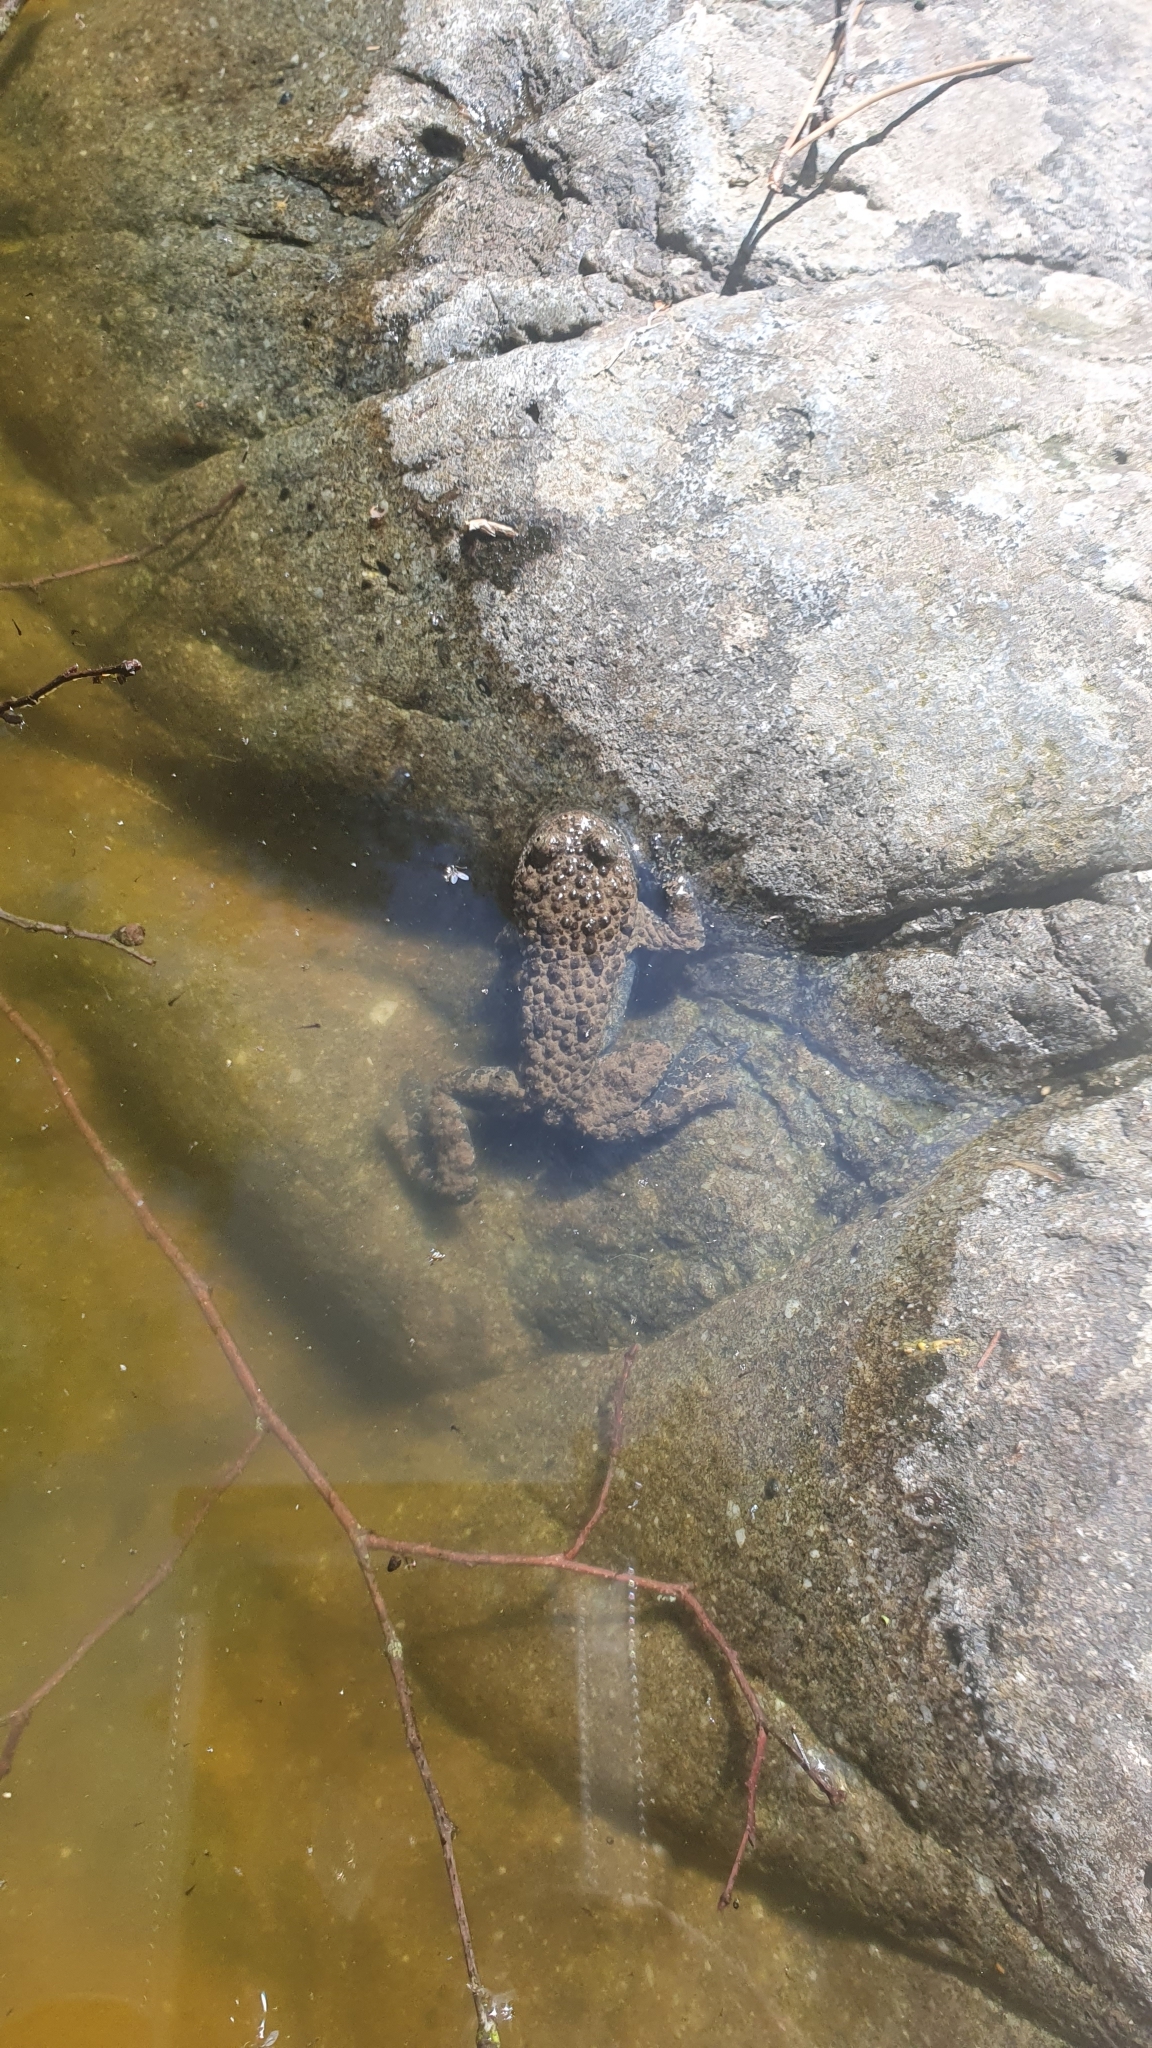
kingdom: Animalia
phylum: Chordata
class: Amphibia
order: Anura
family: Bombinatoridae
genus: Bombina
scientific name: Bombina variegata
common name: Yellow-bellied toad
